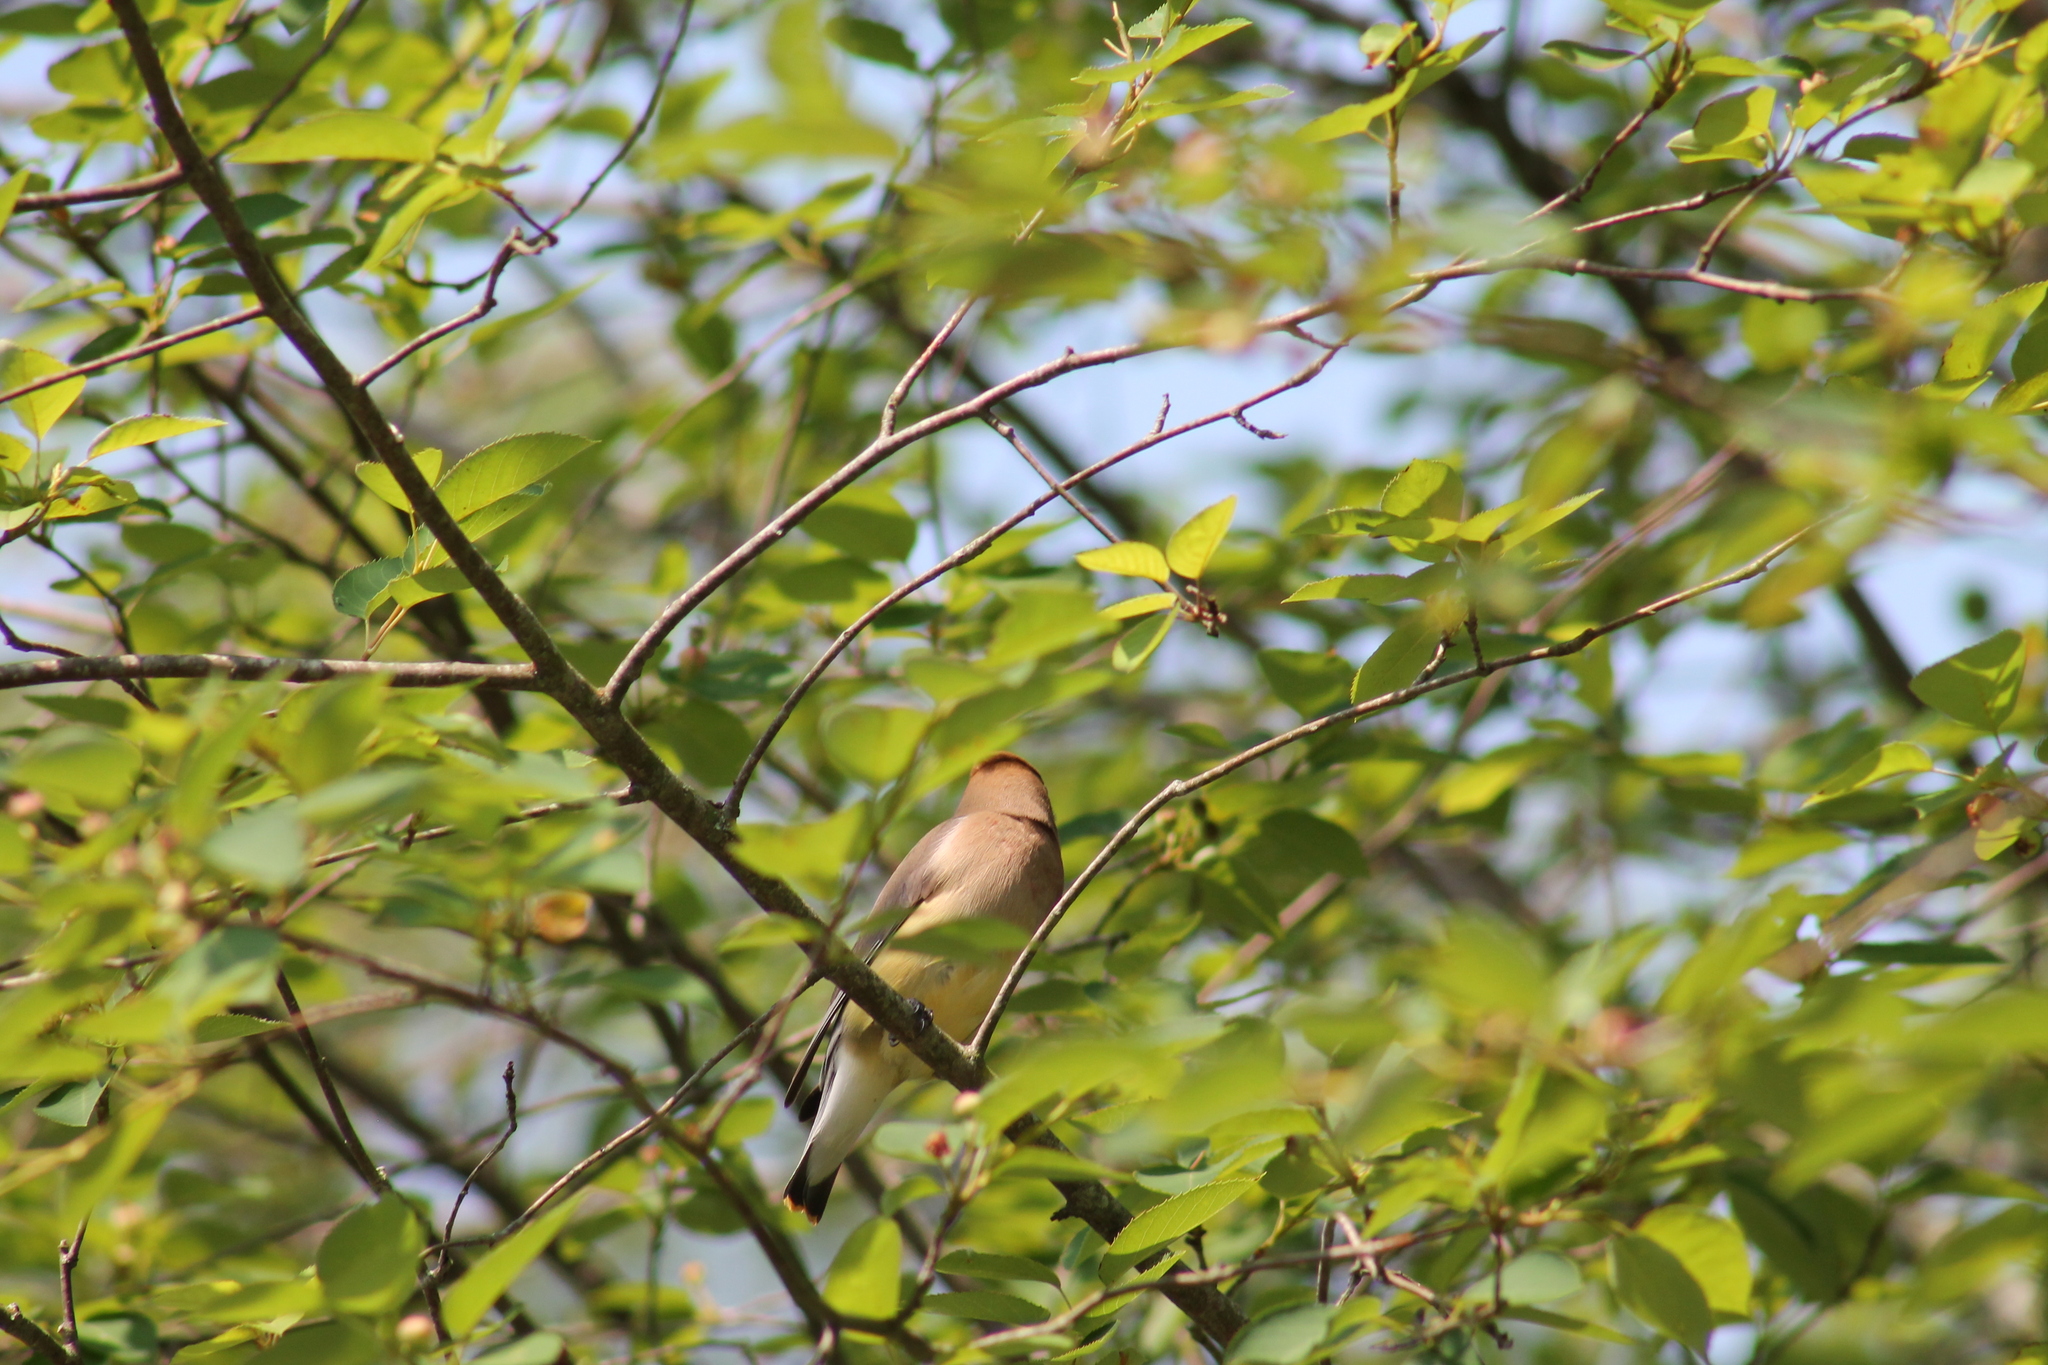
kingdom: Animalia
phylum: Chordata
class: Aves
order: Passeriformes
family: Bombycillidae
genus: Bombycilla
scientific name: Bombycilla cedrorum
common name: Cedar waxwing
